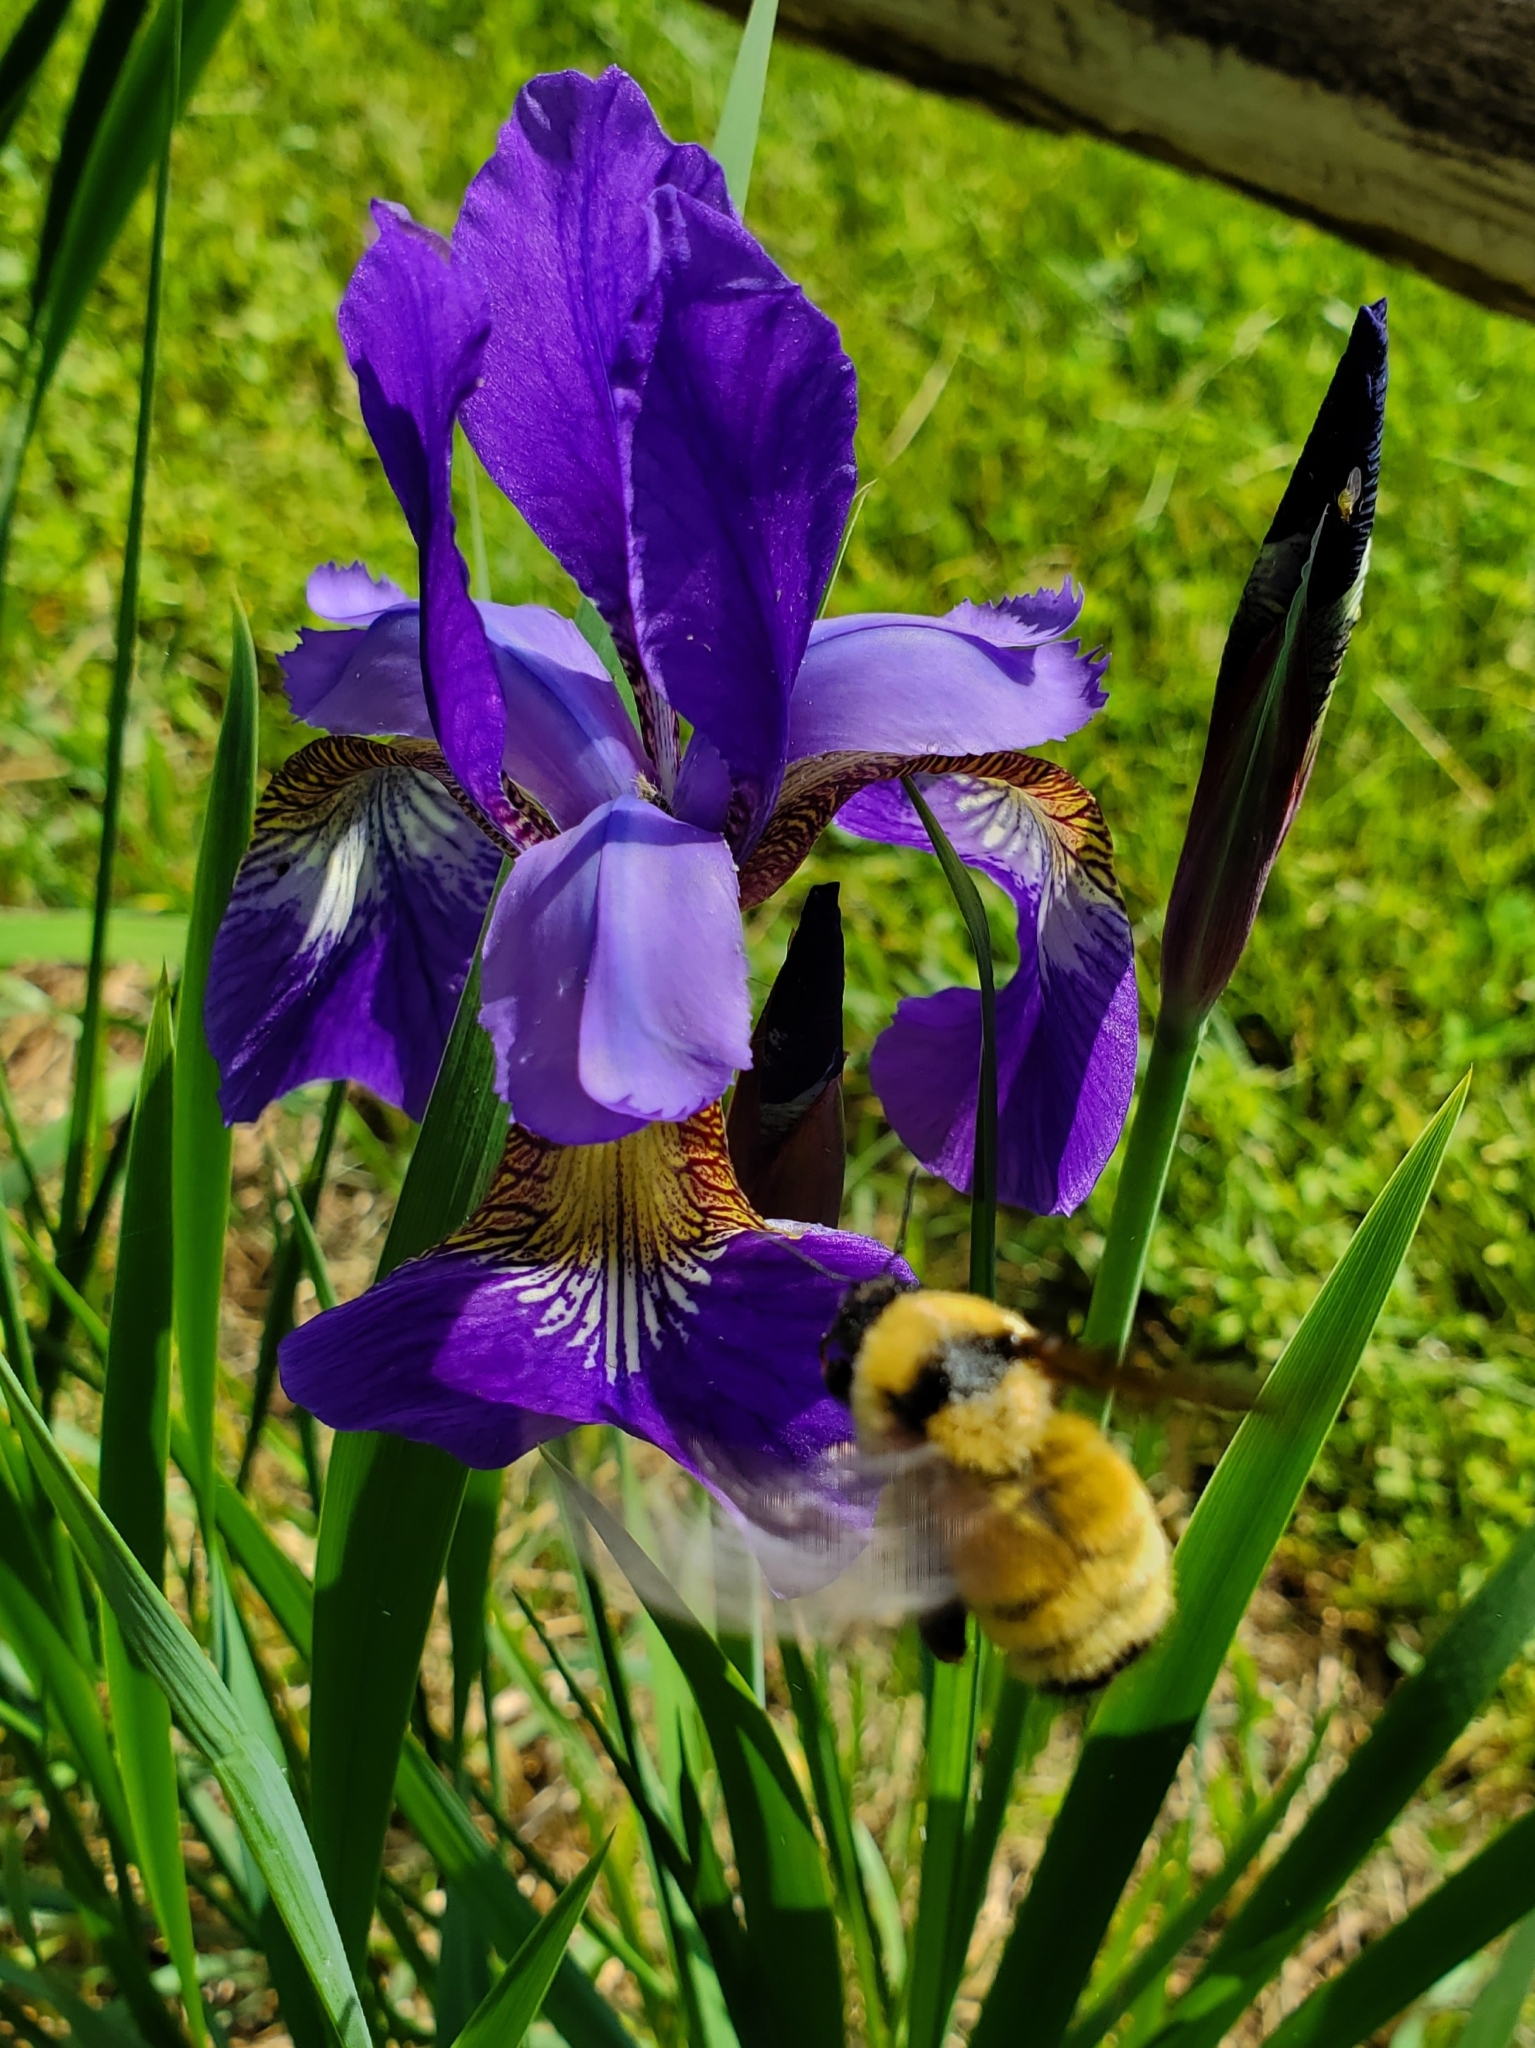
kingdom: Animalia
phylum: Arthropoda
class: Insecta
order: Hymenoptera
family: Apidae
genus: Bombus
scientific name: Bombus fervidus
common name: Yellow bumble bee
